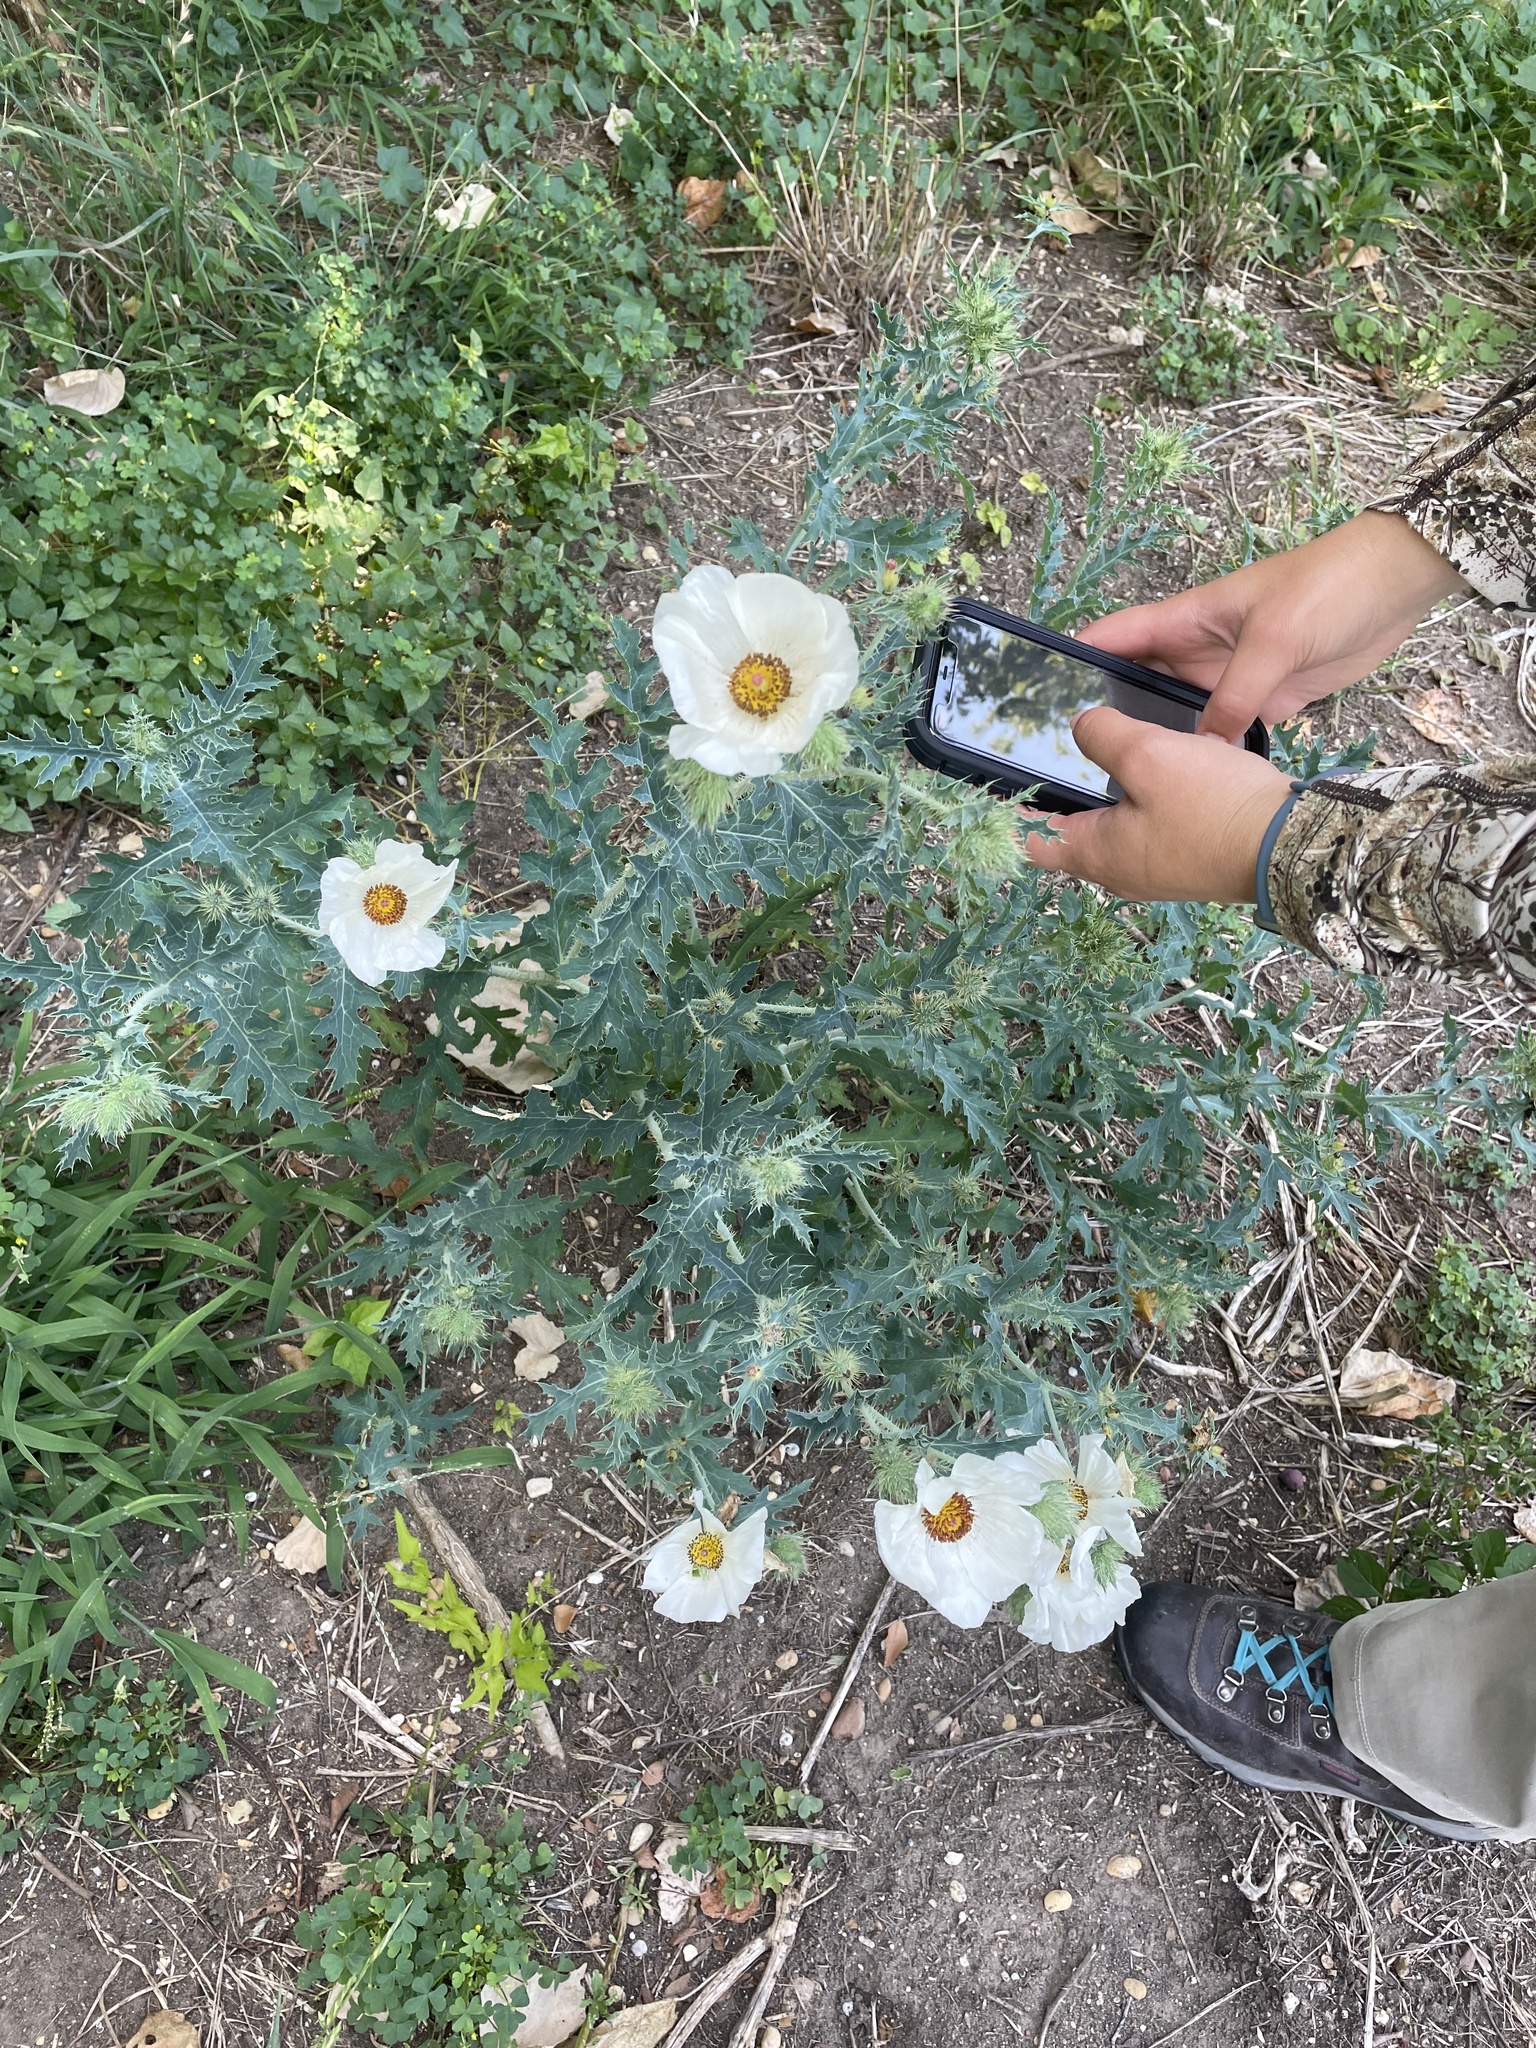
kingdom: Plantae
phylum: Tracheophyta
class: Magnoliopsida
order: Ranunculales
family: Papaveraceae
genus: Argemone
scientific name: Argemone albiflora
